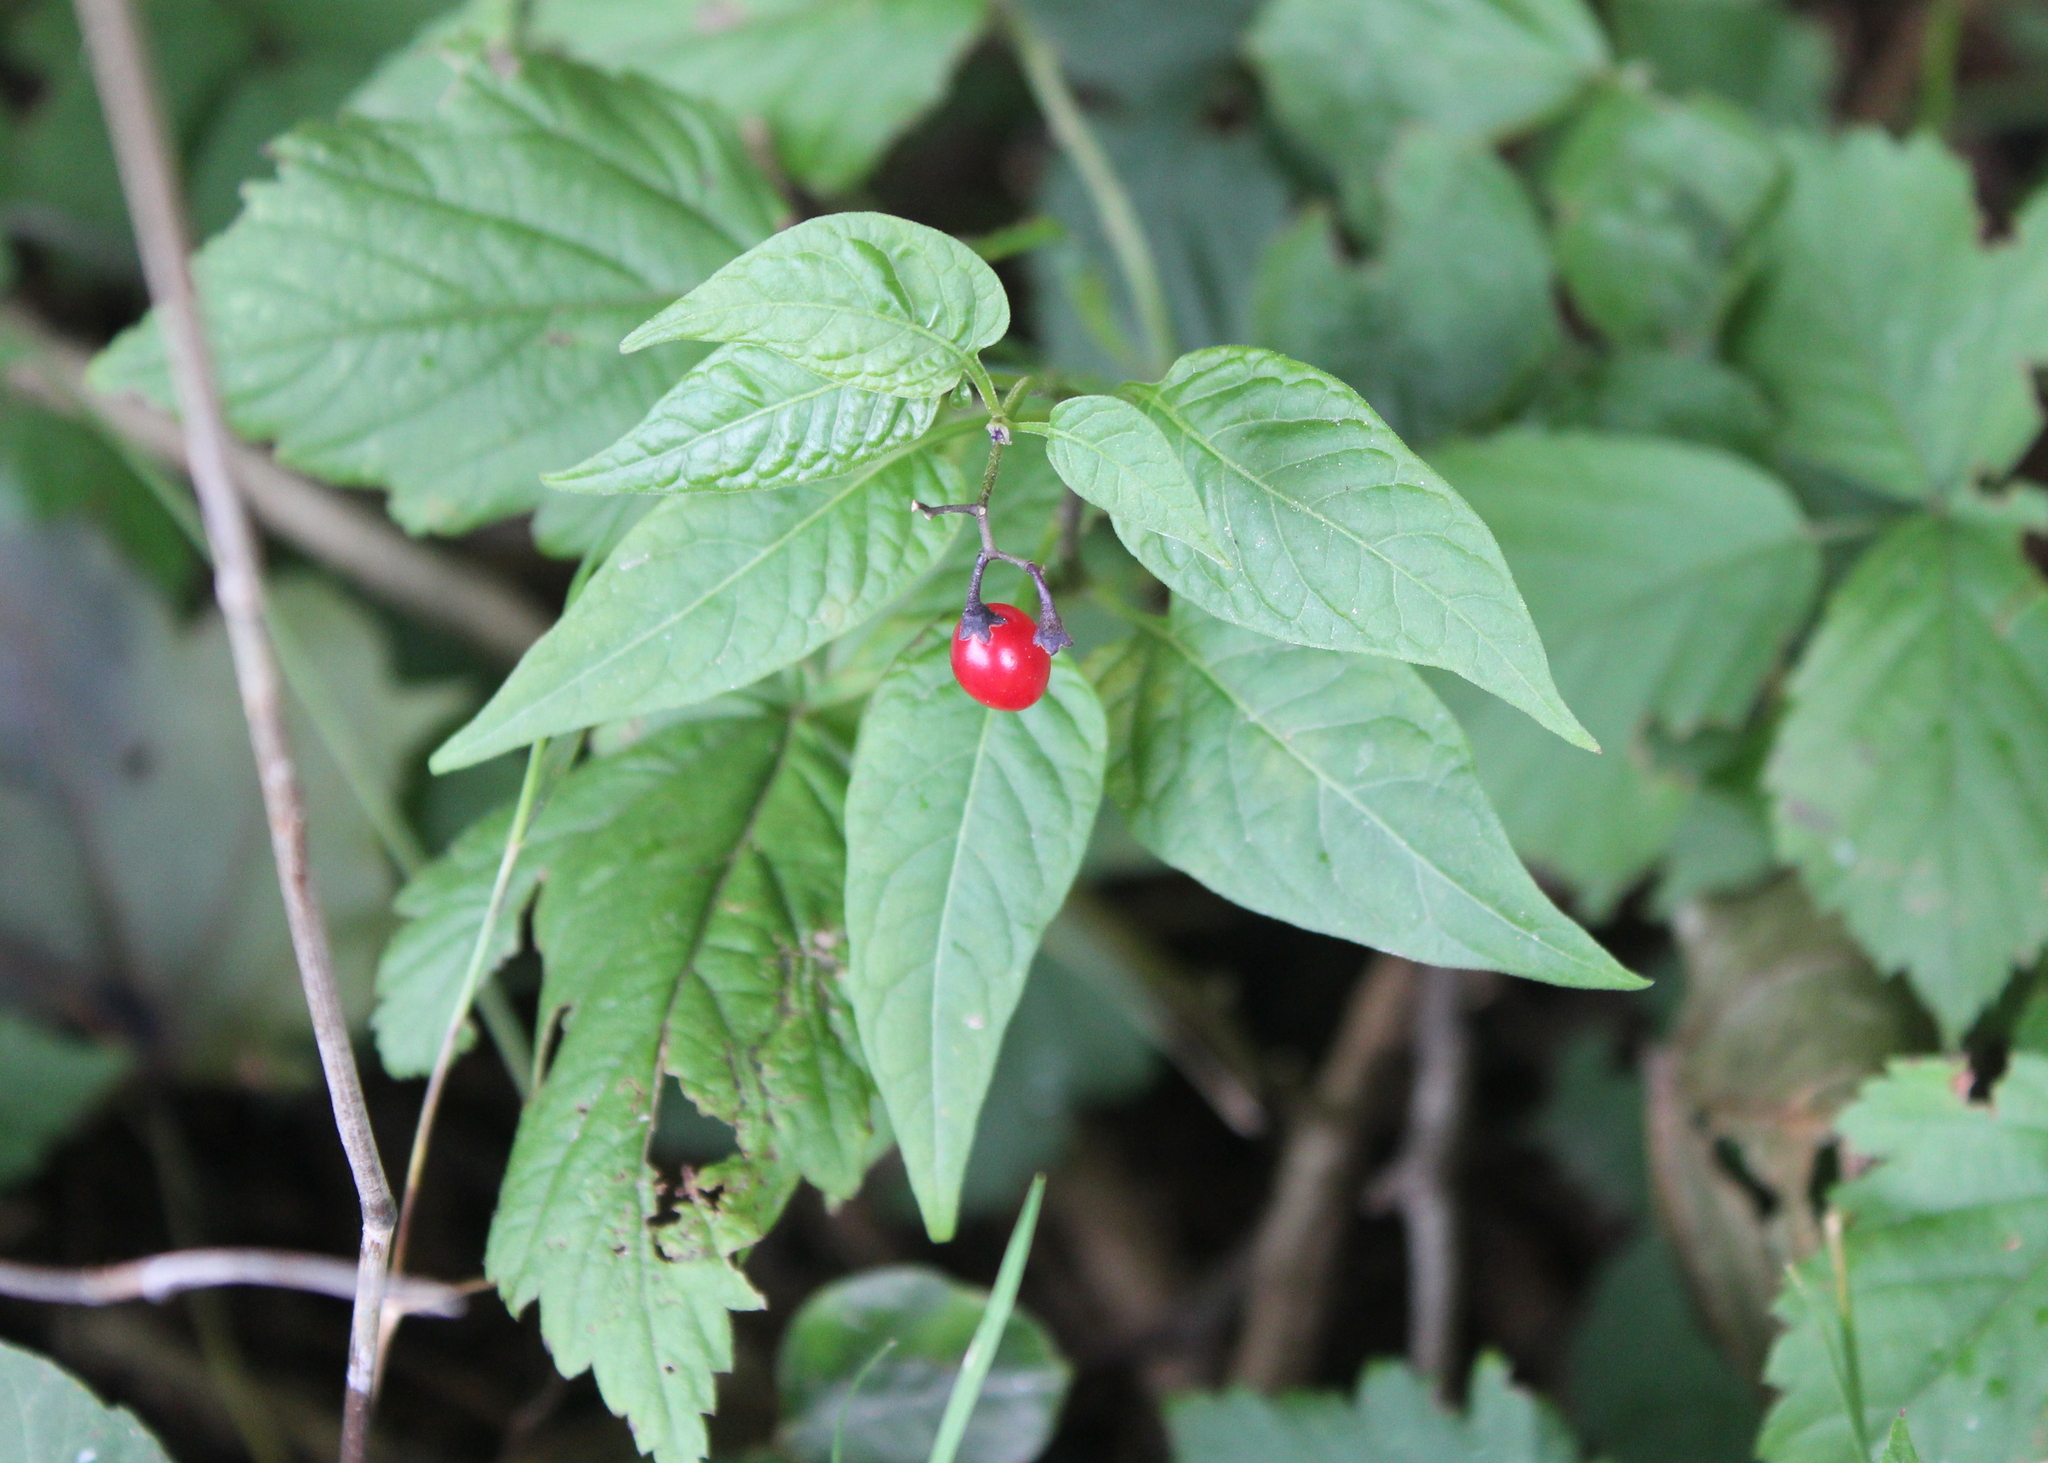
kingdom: Plantae
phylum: Tracheophyta
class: Magnoliopsida
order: Solanales
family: Solanaceae
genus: Solanum
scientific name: Solanum dulcamara
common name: Climbing nightshade
